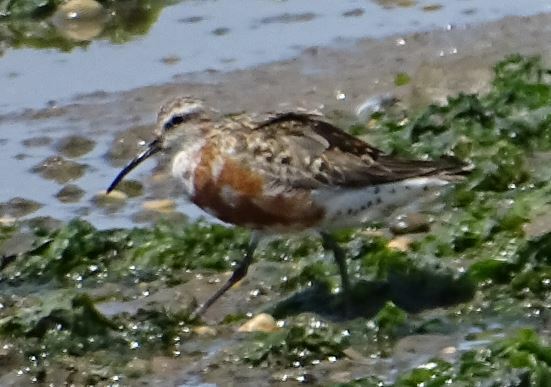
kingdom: Animalia
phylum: Chordata
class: Aves
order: Charadriiformes
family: Scolopacidae
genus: Calidris
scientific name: Calidris ferruginea
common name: Curlew sandpiper
